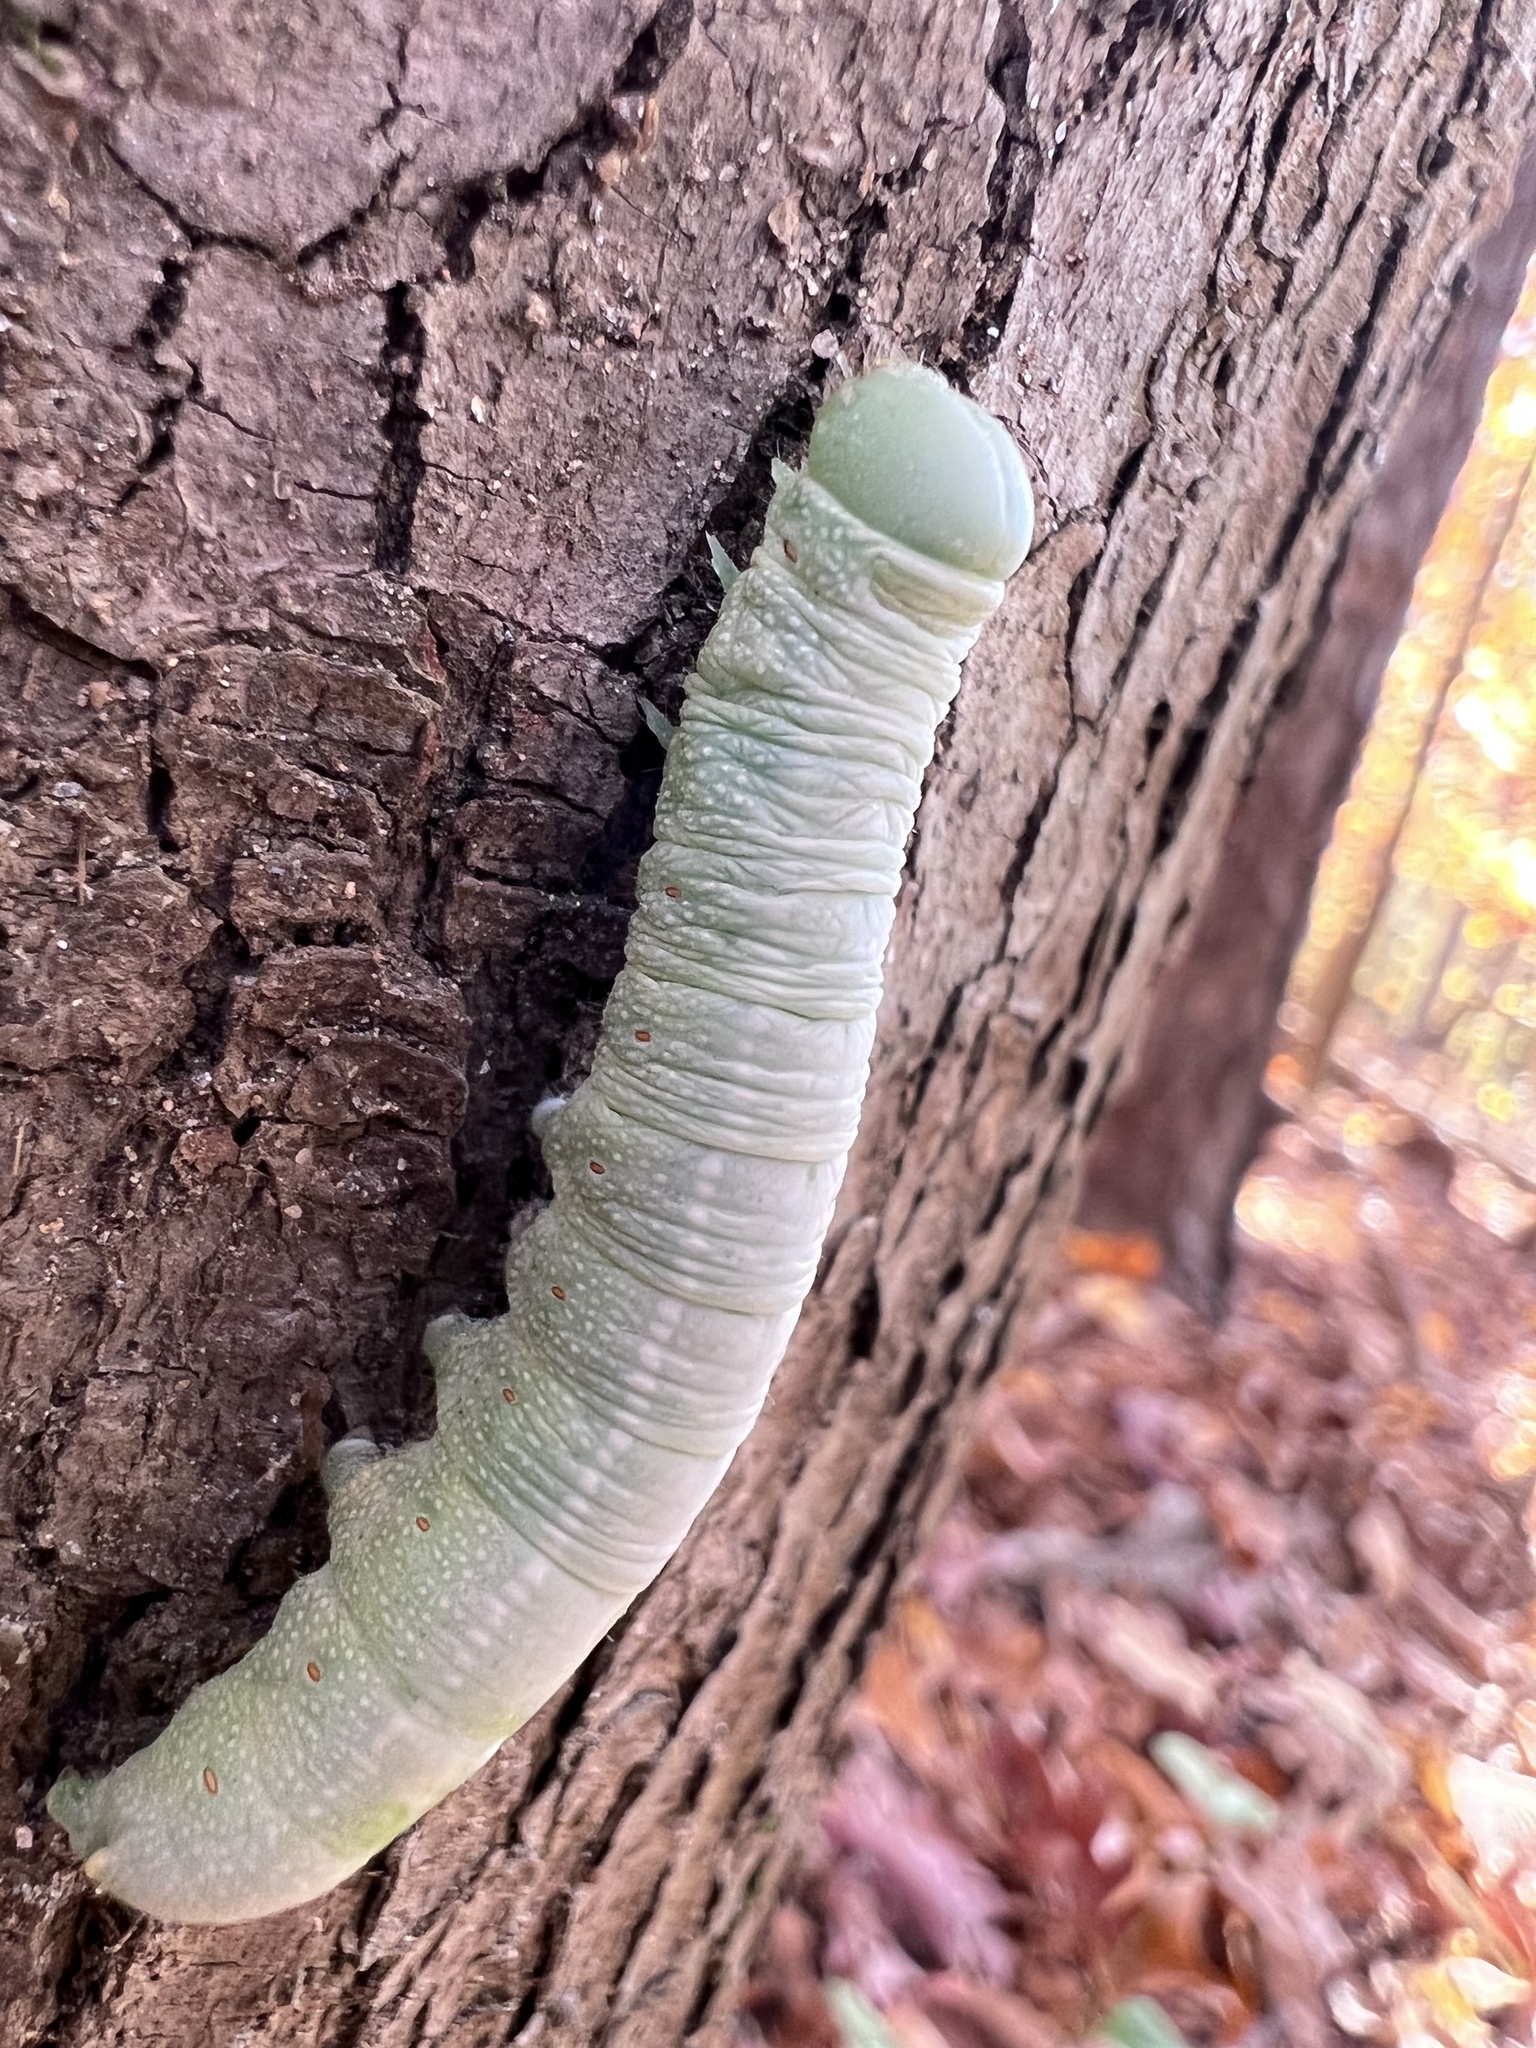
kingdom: Animalia
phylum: Arthropoda
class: Insecta
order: Lepidoptera
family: Notodontidae
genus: Nadata
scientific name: Nadata gibbosa
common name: White-dotted prominent
